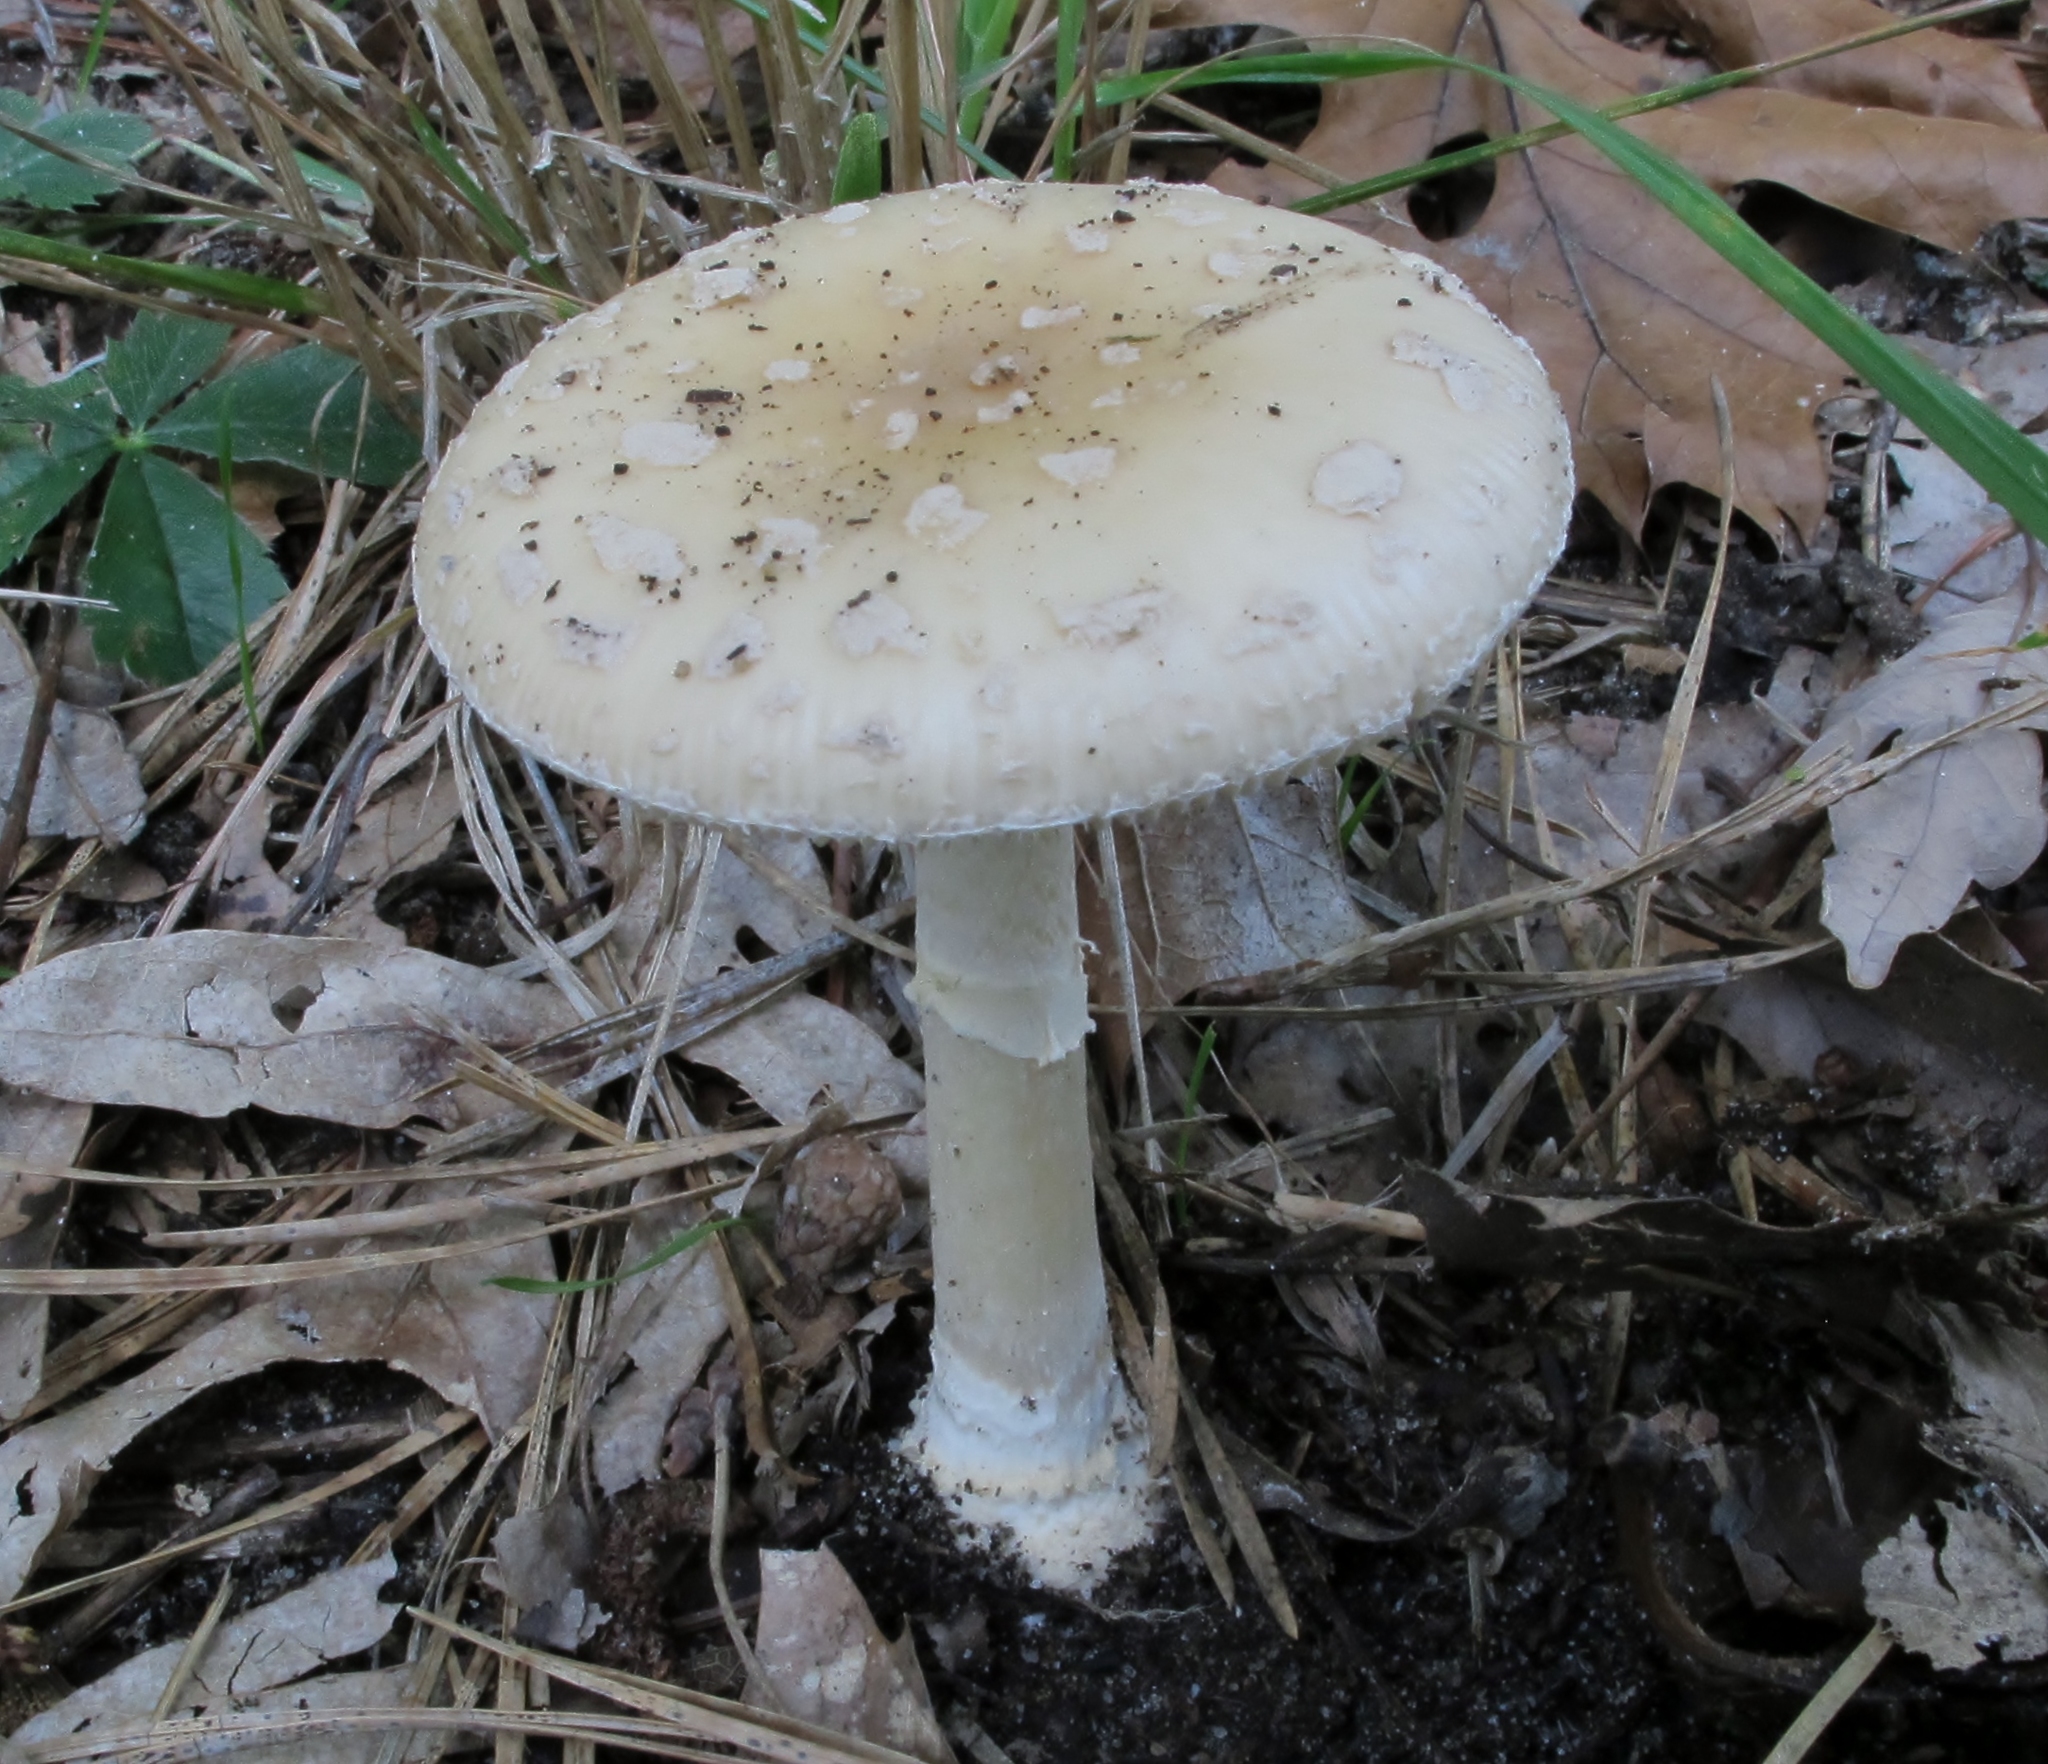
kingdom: Fungi
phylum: Basidiomycota
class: Agaricomycetes
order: Agaricales
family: Amanitaceae
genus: Amanita
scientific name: Amanita crenulata
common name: Poison champagne amanita
